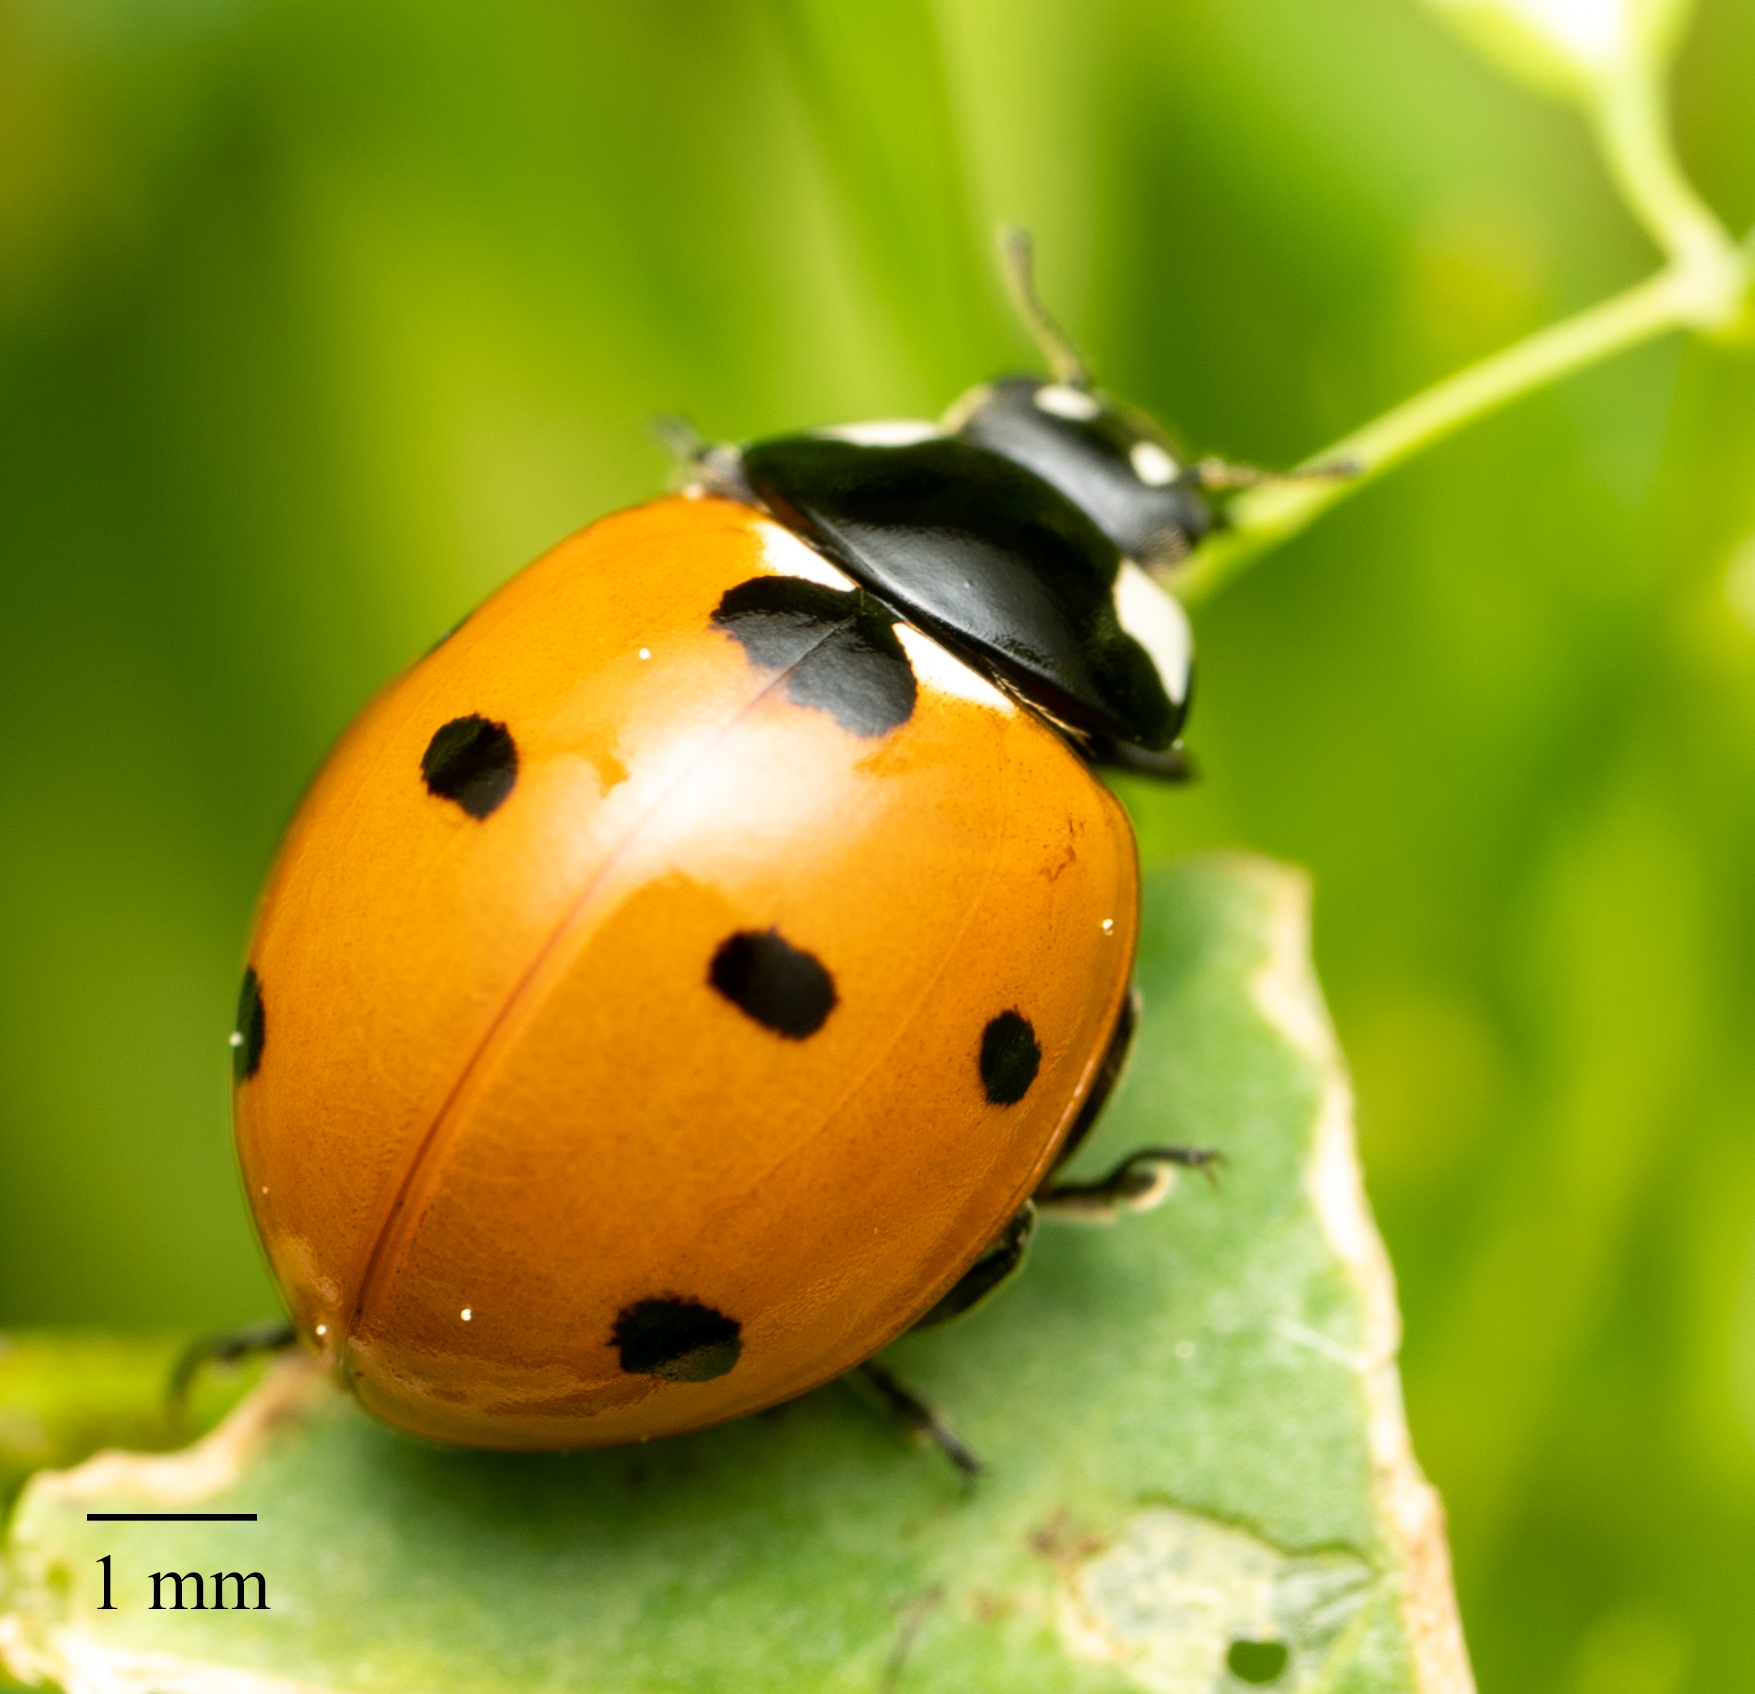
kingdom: Animalia
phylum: Arthropoda
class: Insecta
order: Coleoptera
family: Coccinellidae
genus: Coccinella
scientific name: Coccinella septempunctata
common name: Sevenspotted lady beetle
